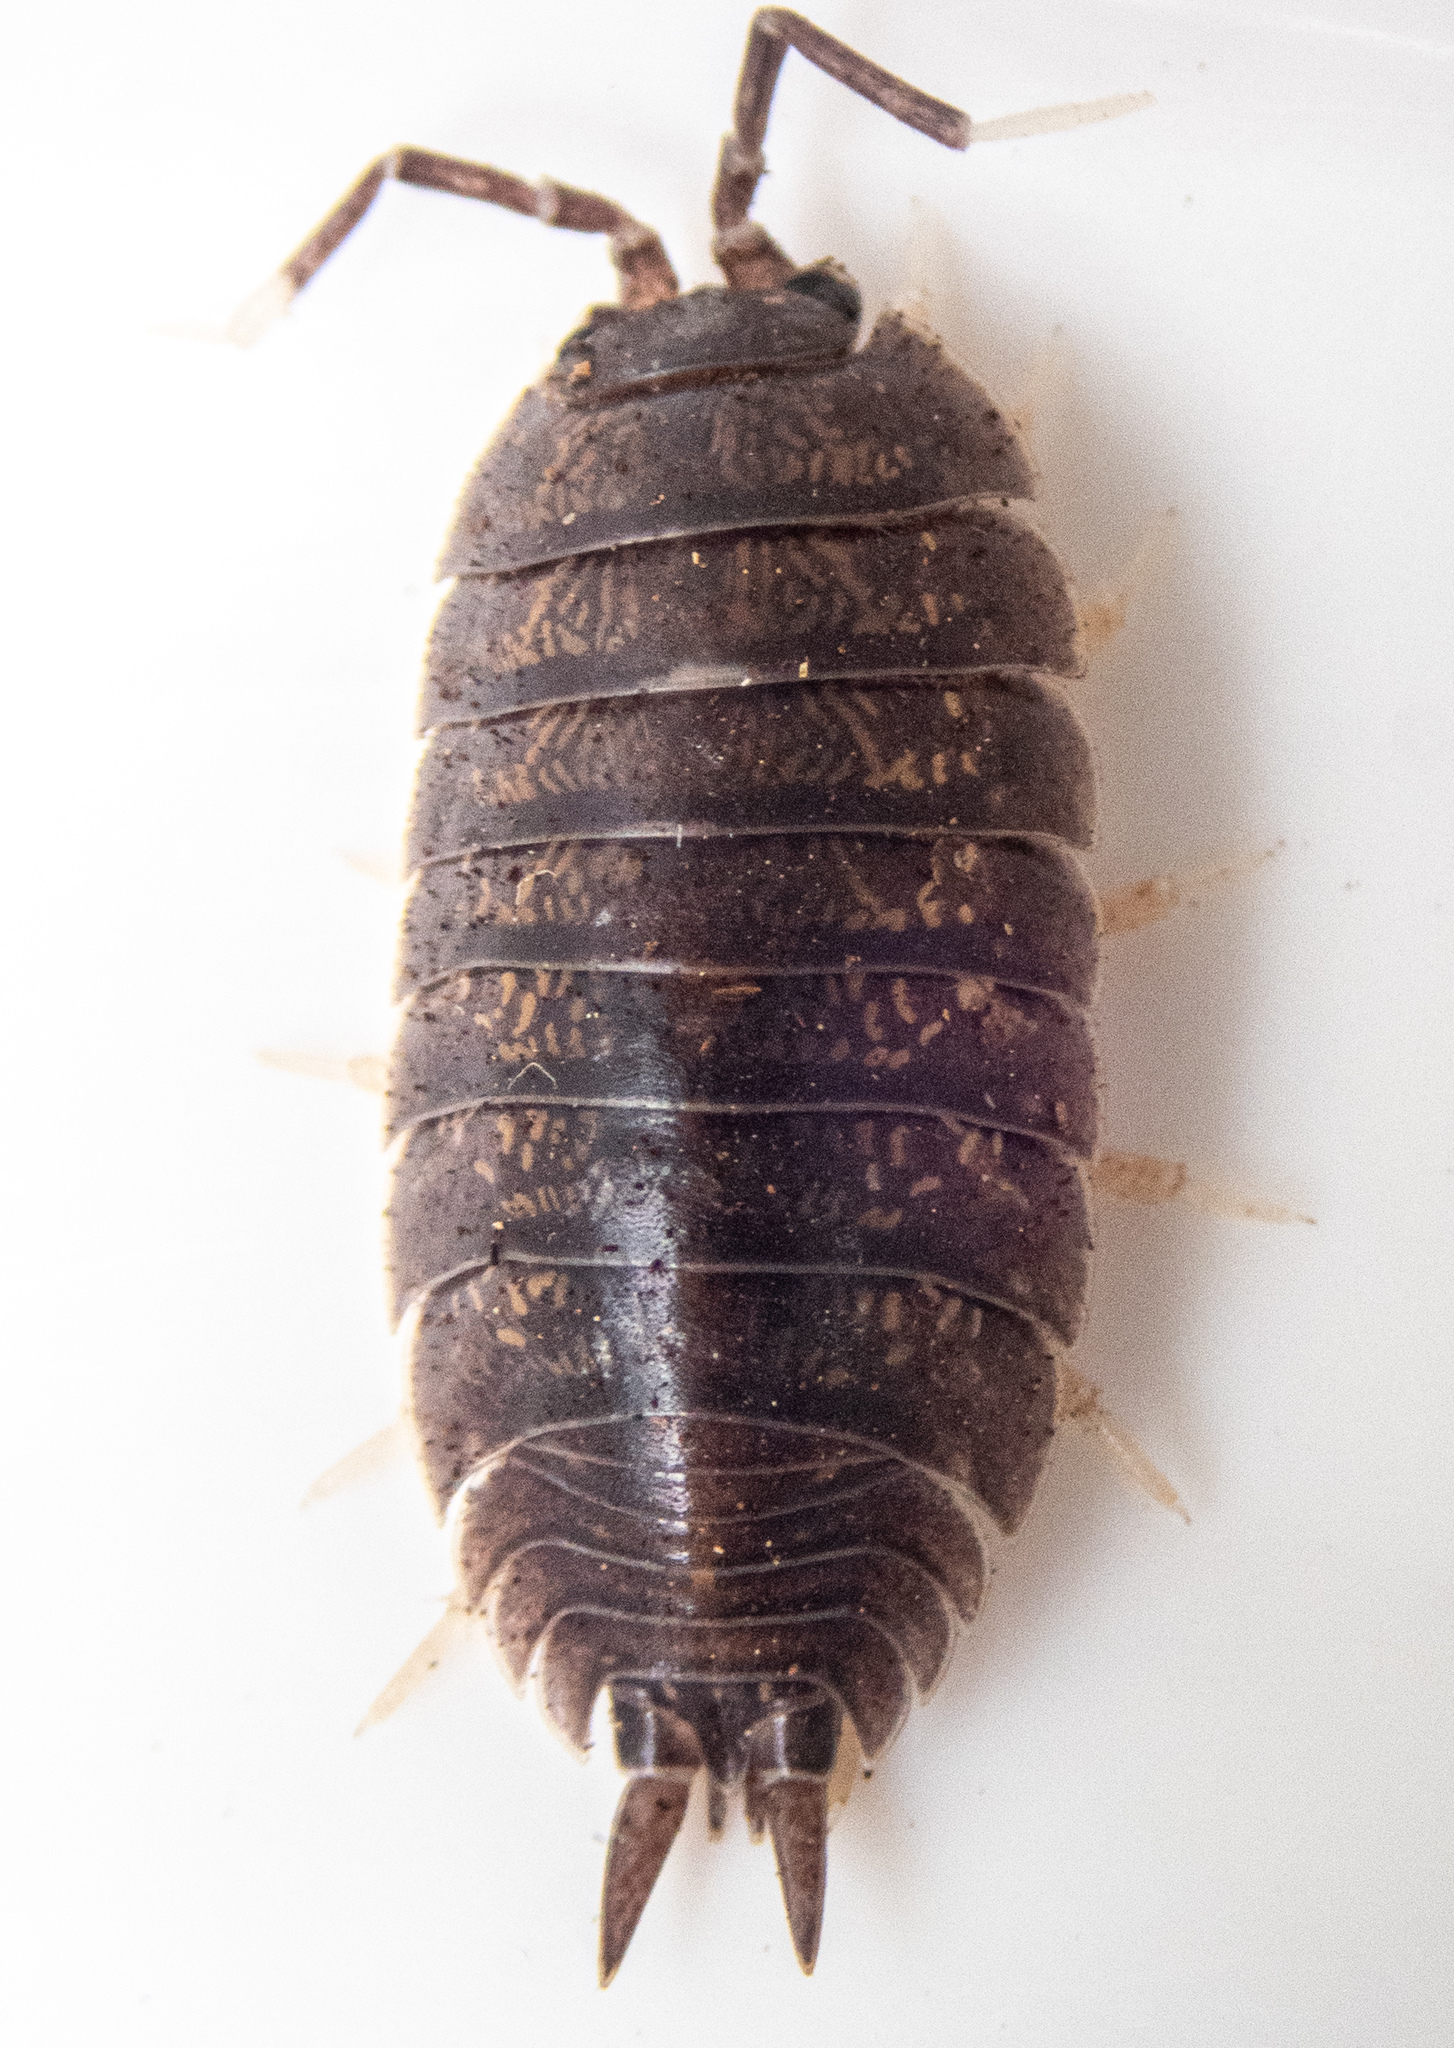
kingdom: Animalia
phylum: Arthropoda
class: Malacostraca
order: Isopoda
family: Porcellionidae
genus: Porcellio
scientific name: Porcellio laevis
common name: Swift woodlouse
